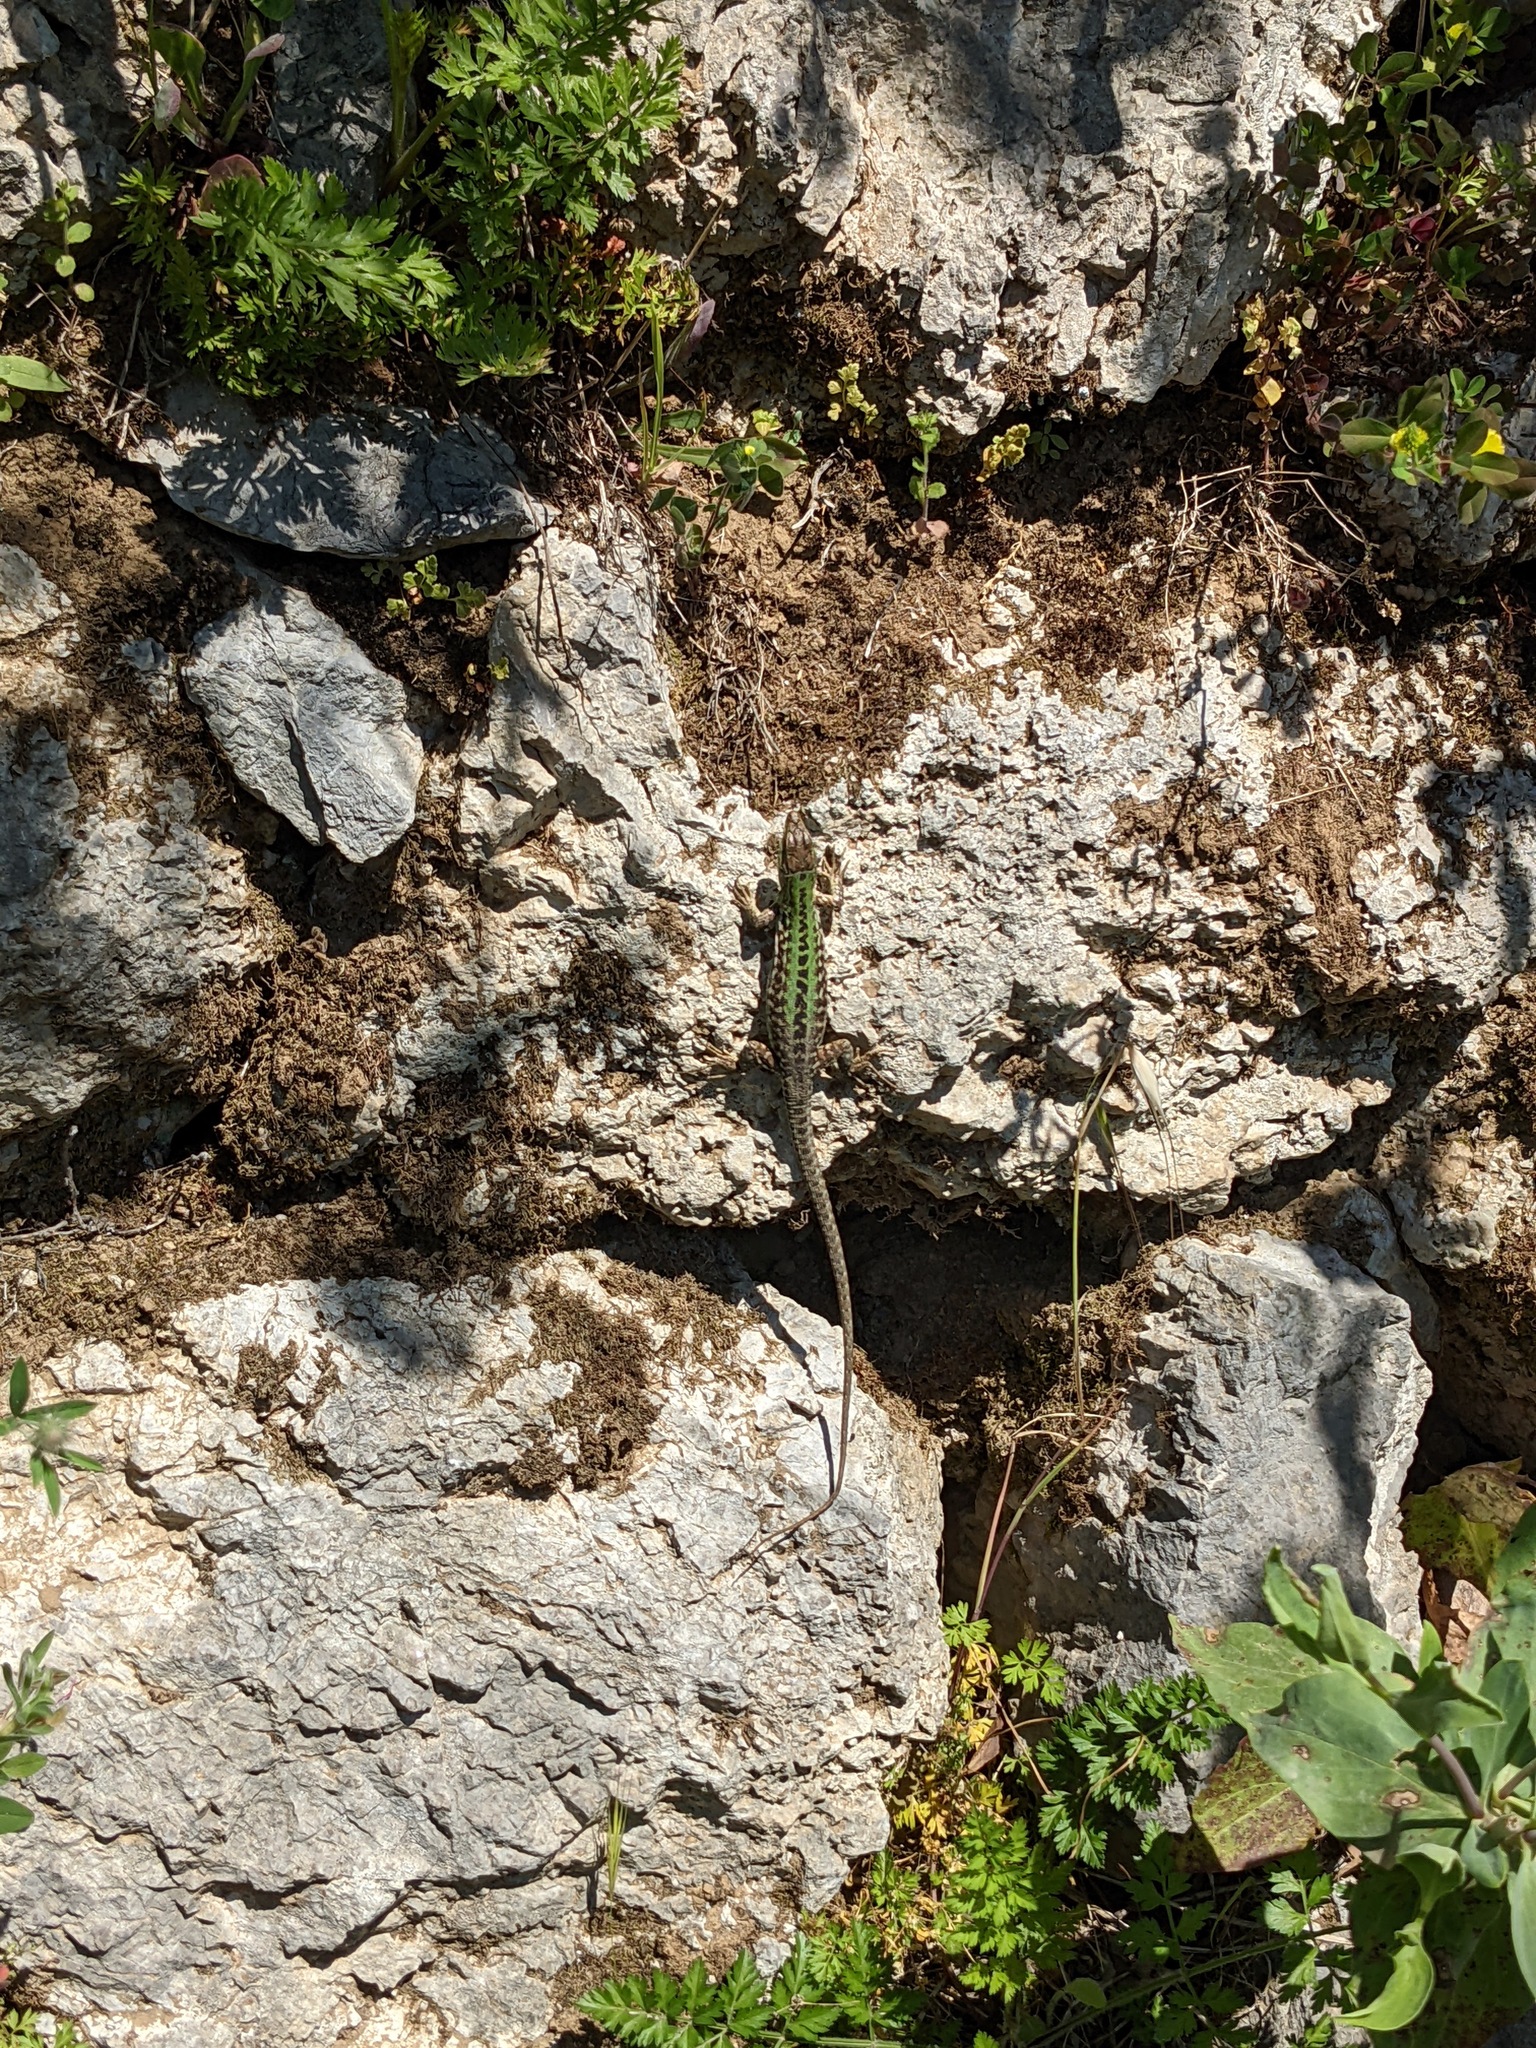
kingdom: Animalia
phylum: Chordata
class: Squamata
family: Lacertidae
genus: Podarcis
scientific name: Podarcis siculus
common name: Italian wall lizard
